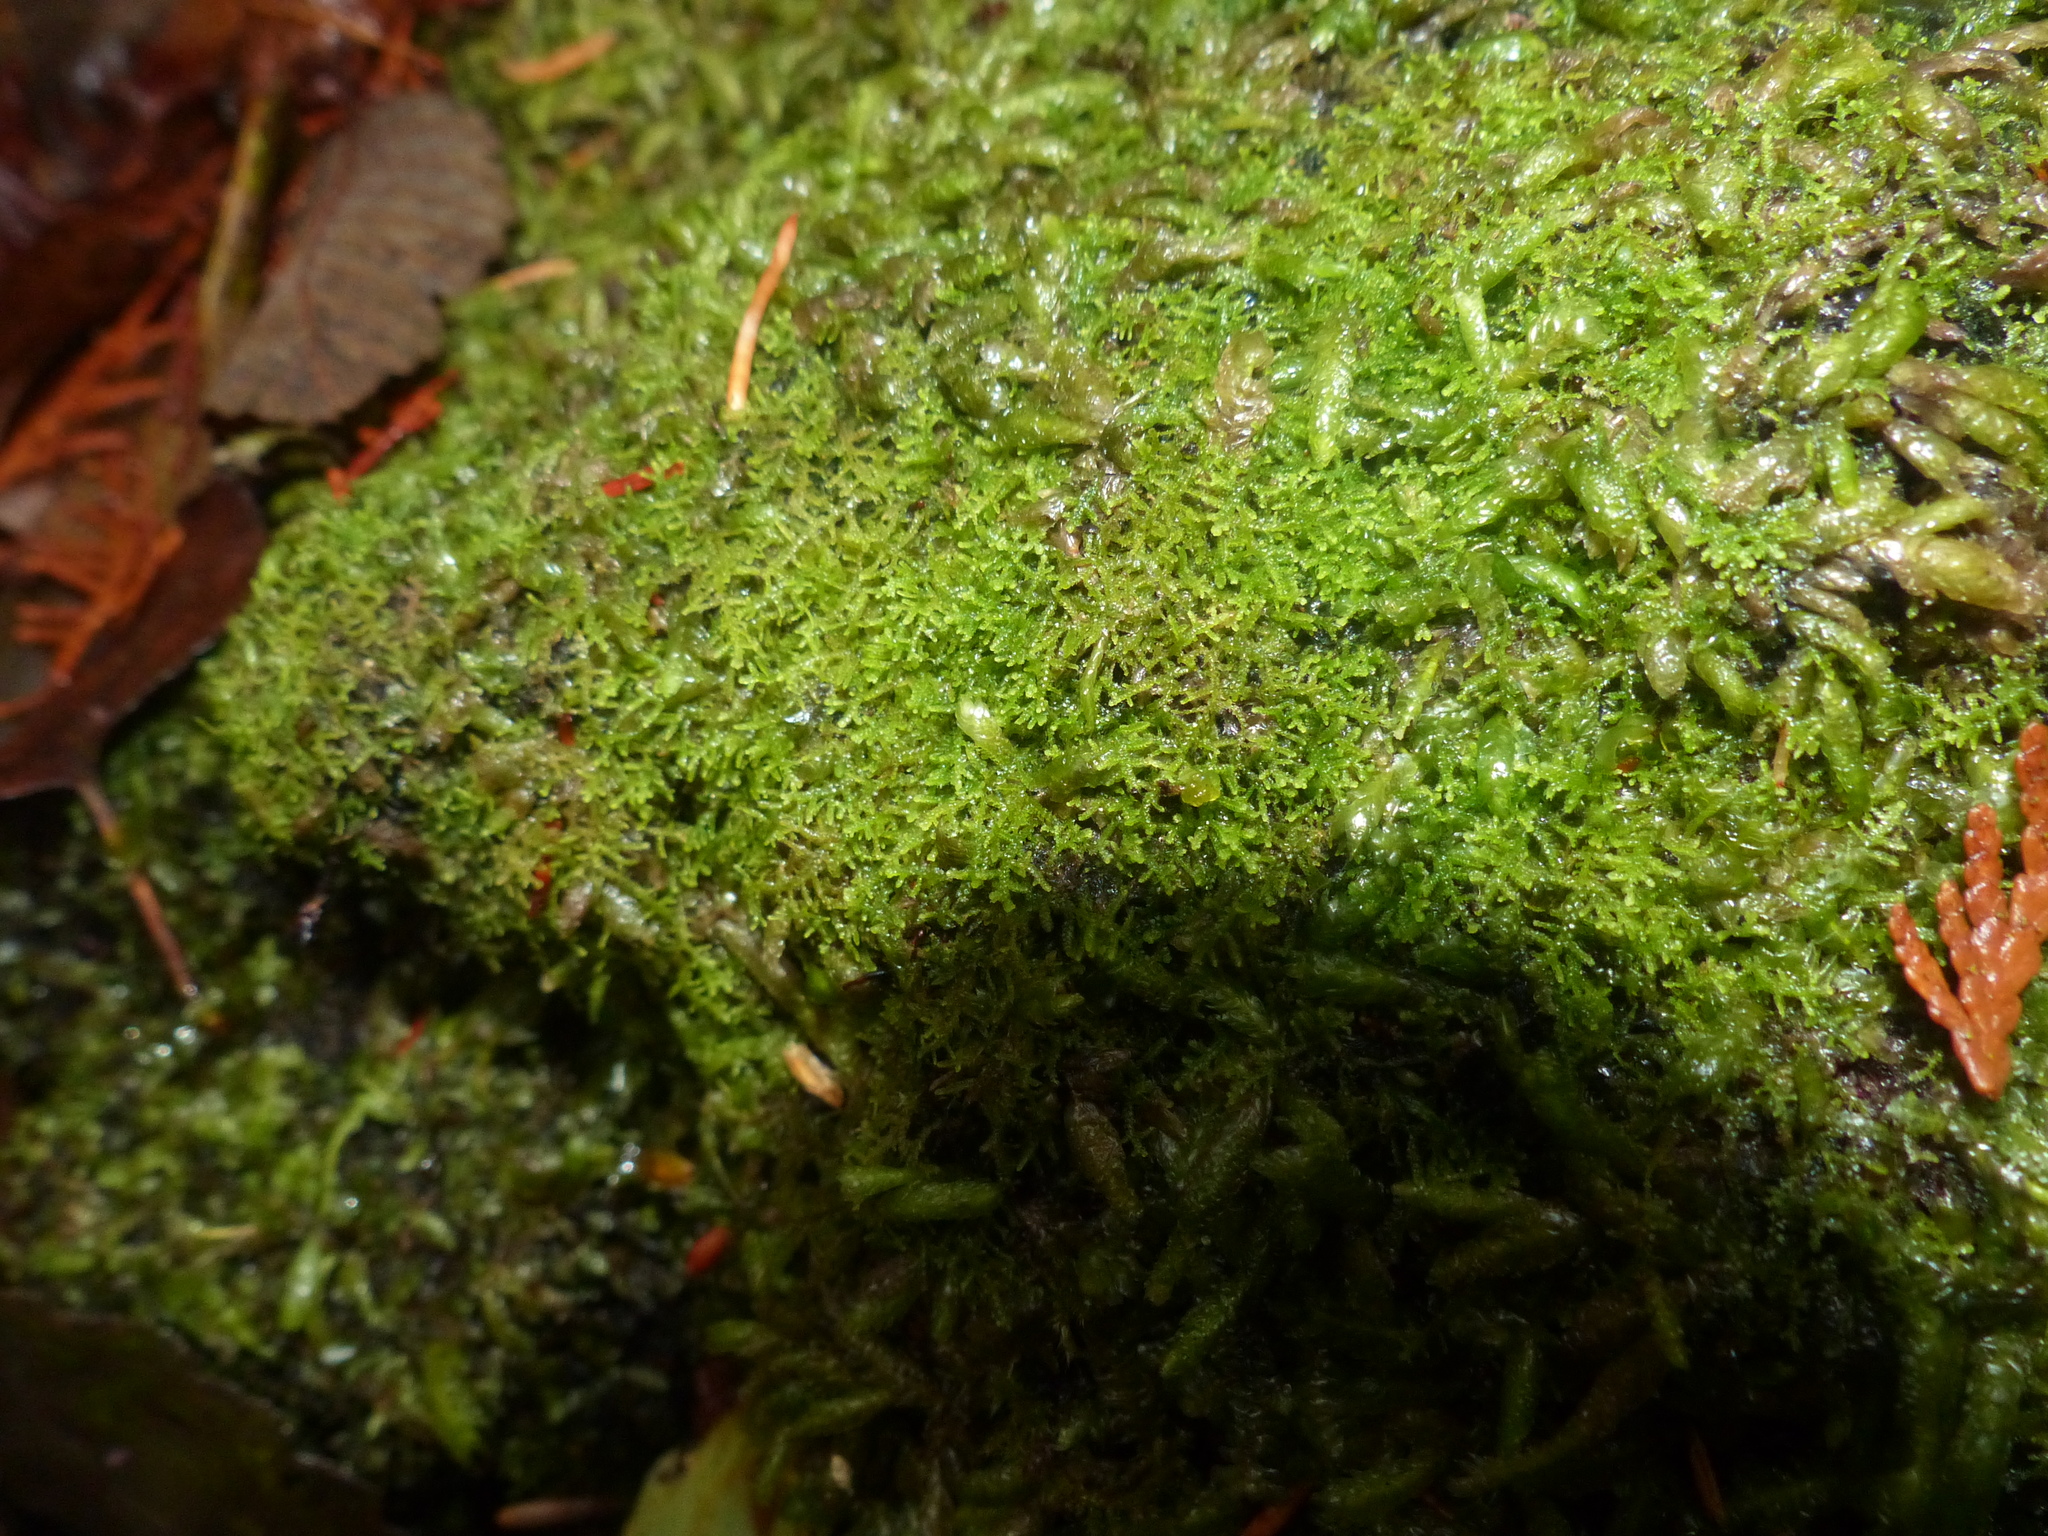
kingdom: Plantae
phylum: Marchantiophyta
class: Jungermanniopsida
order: Metzgeriales
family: Aneuraceae
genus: Riccardia
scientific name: Riccardia chamedryfolia
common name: Jagged germanderwort
